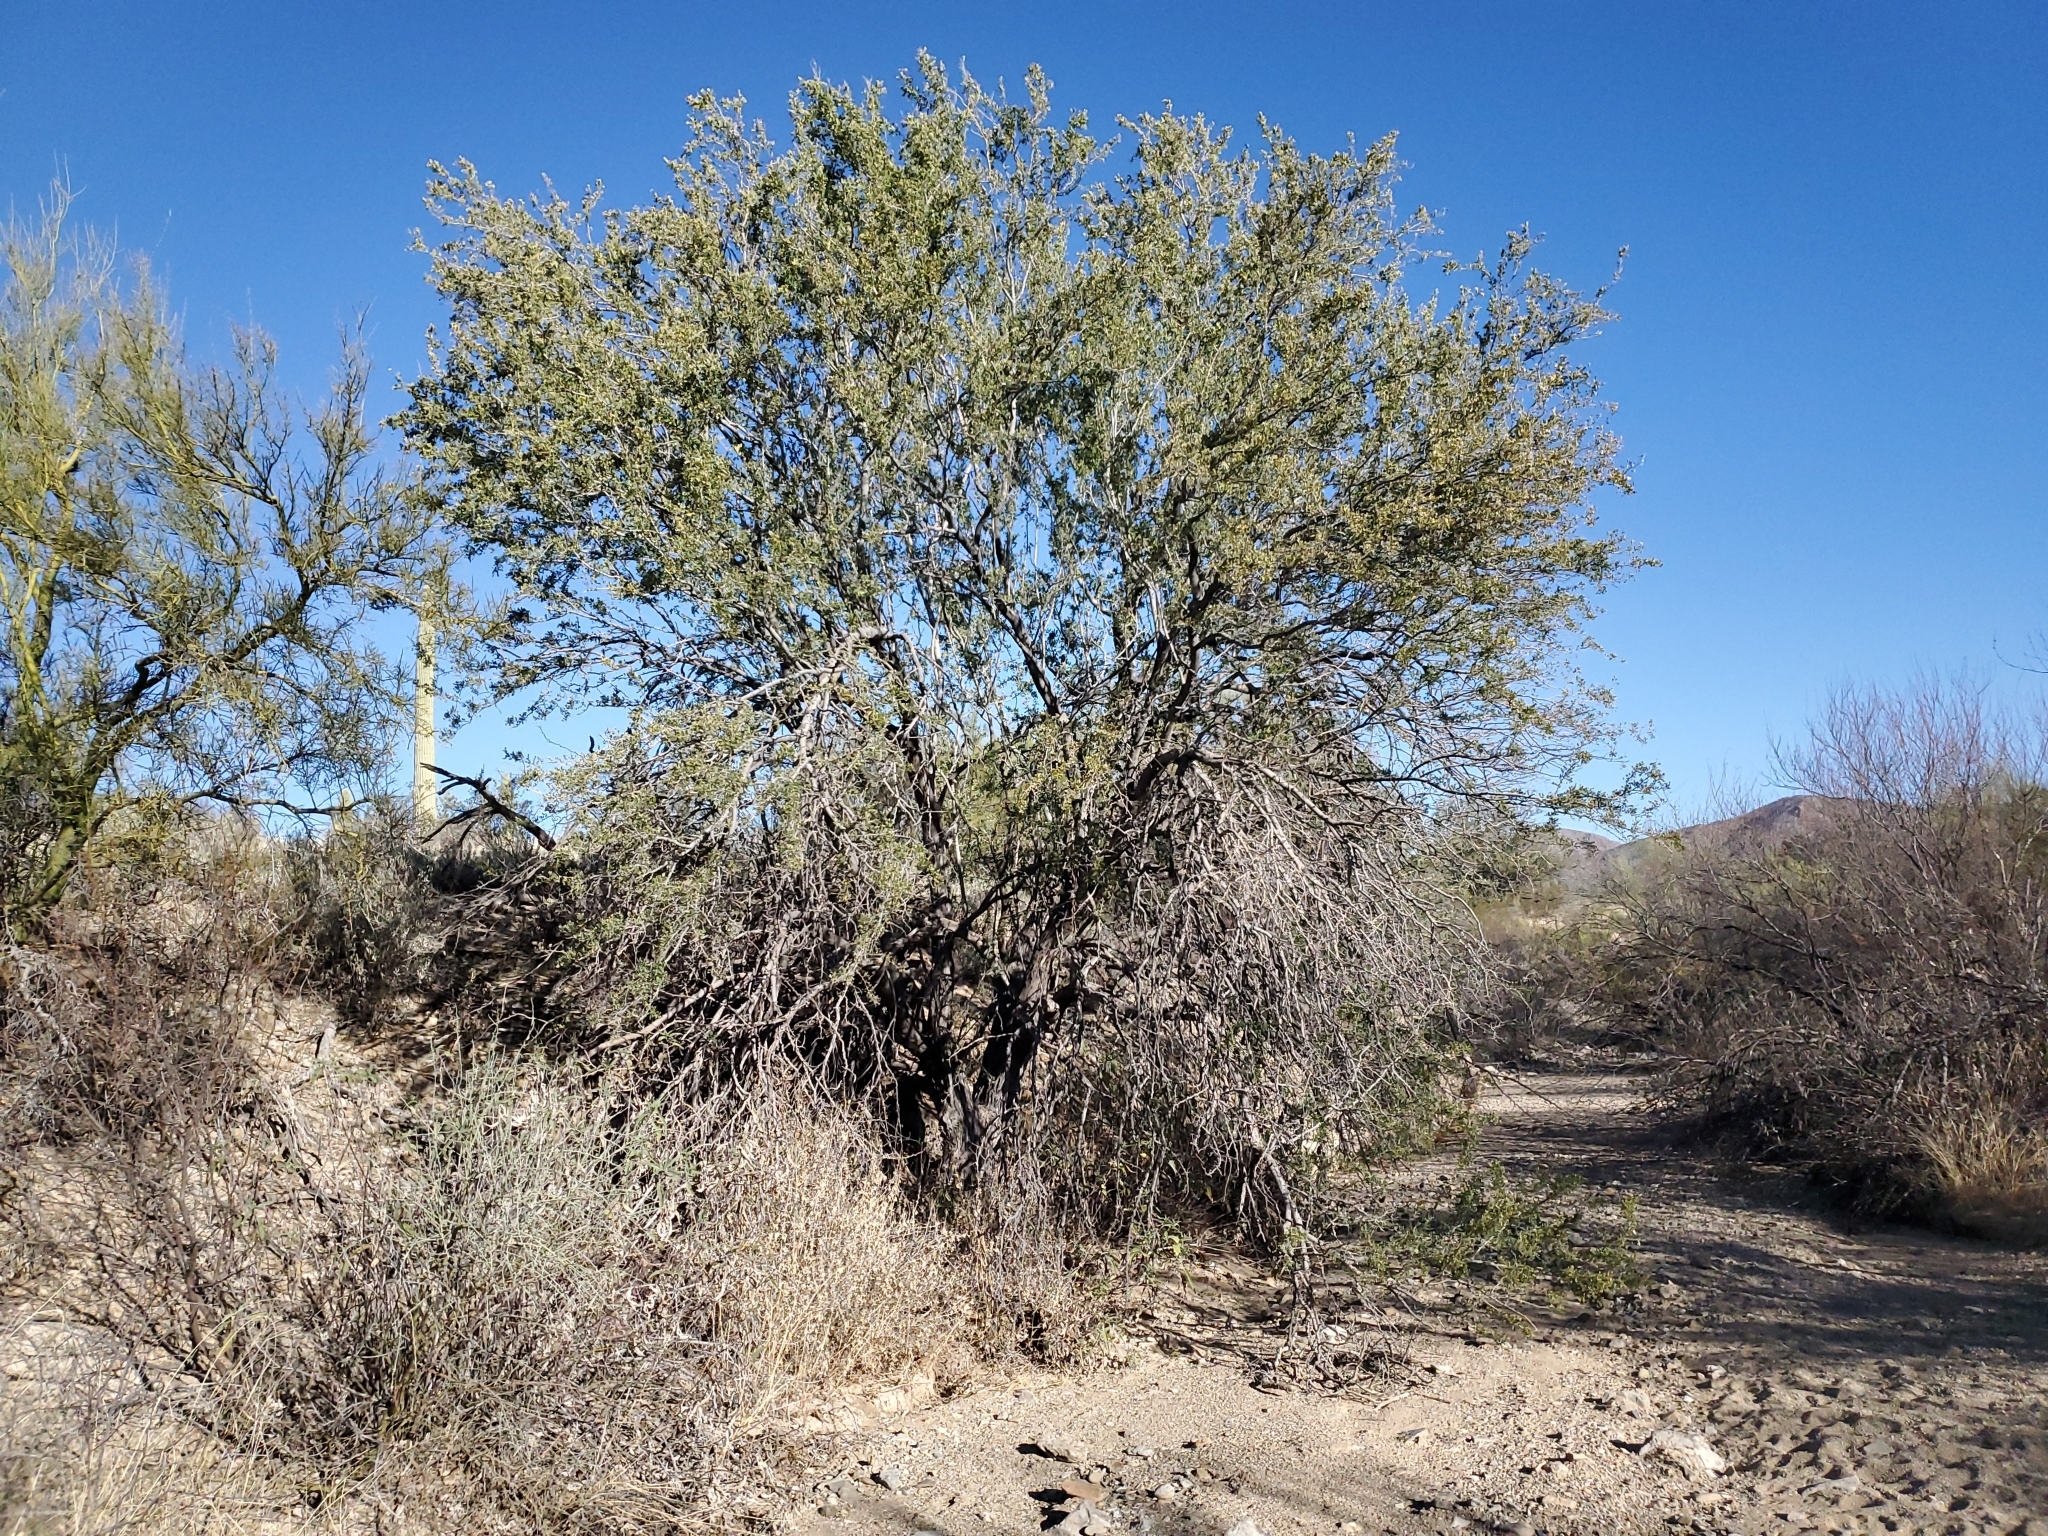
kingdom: Plantae
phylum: Tracheophyta
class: Magnoliopsida
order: Fabales
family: Fabaceae
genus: Olneya
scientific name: Olneya tesota
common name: Desert ironwood
